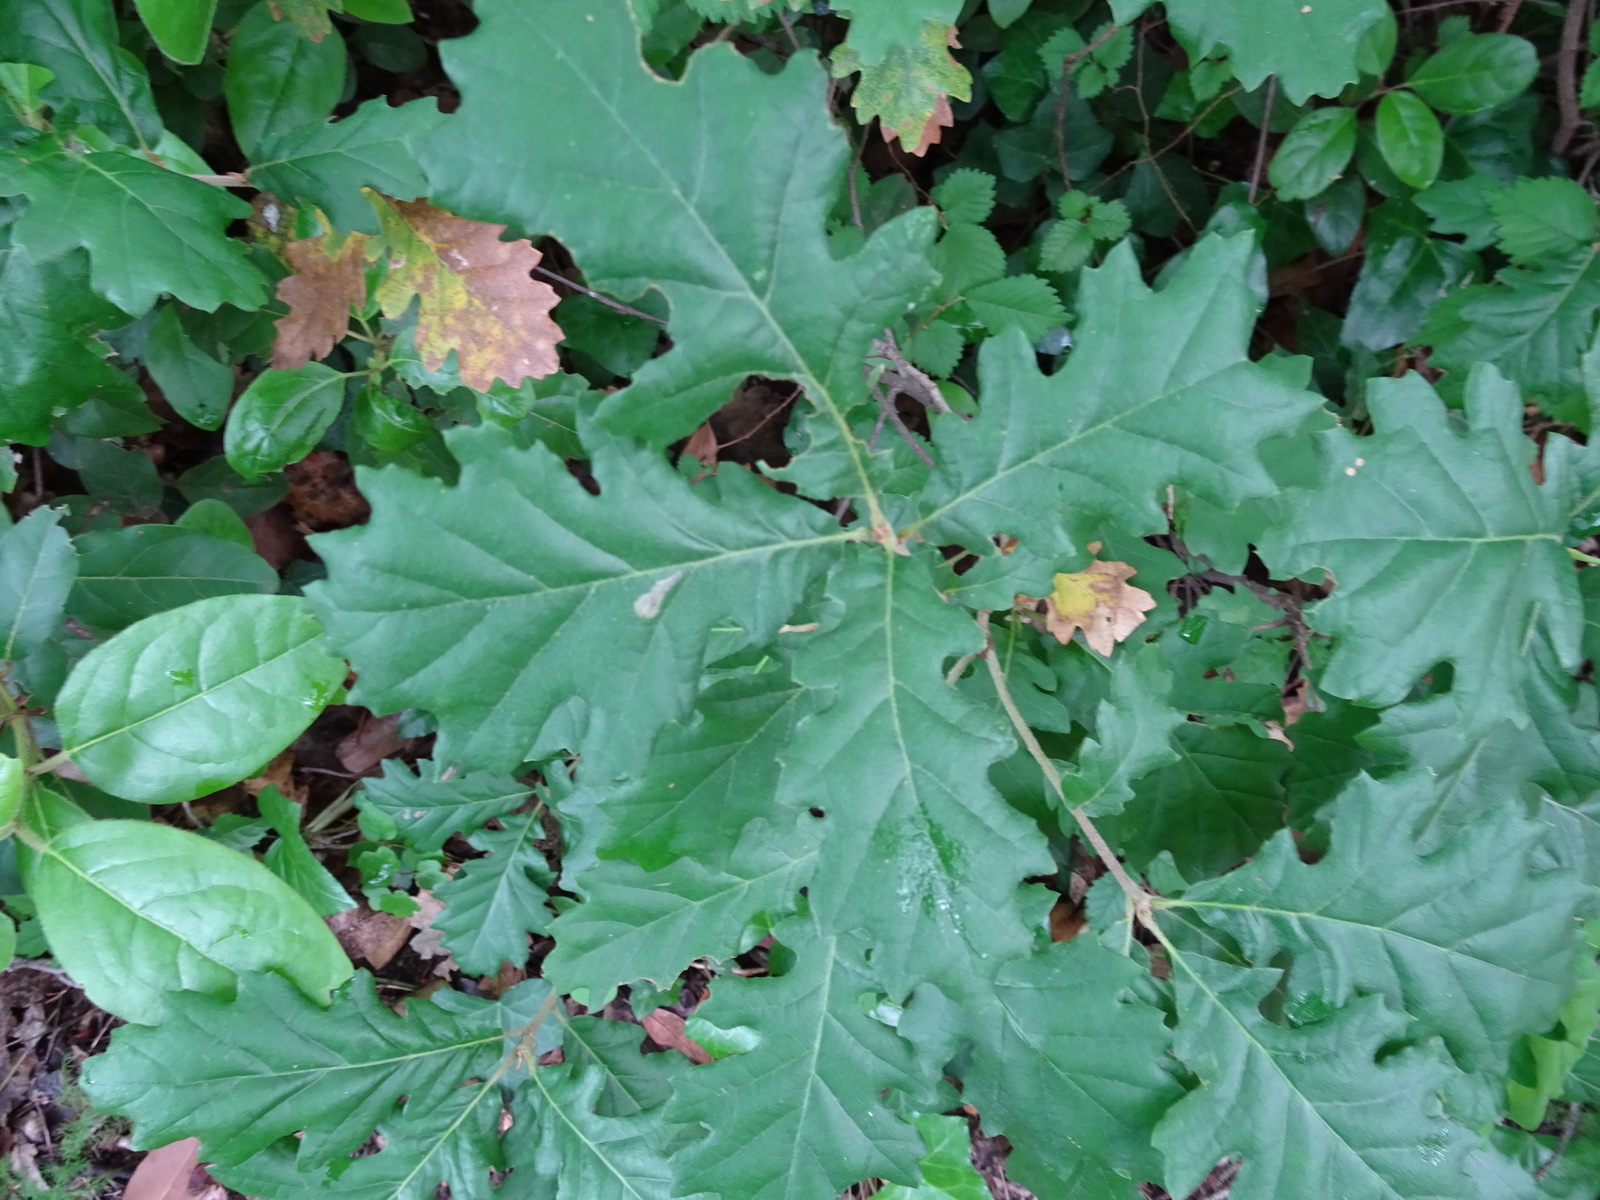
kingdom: Plantae
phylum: Tracheophyta
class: Magnoliopsida
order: Fagales
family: Fagaceae
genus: Quercus
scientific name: Quercus pubescens
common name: Downy oak
